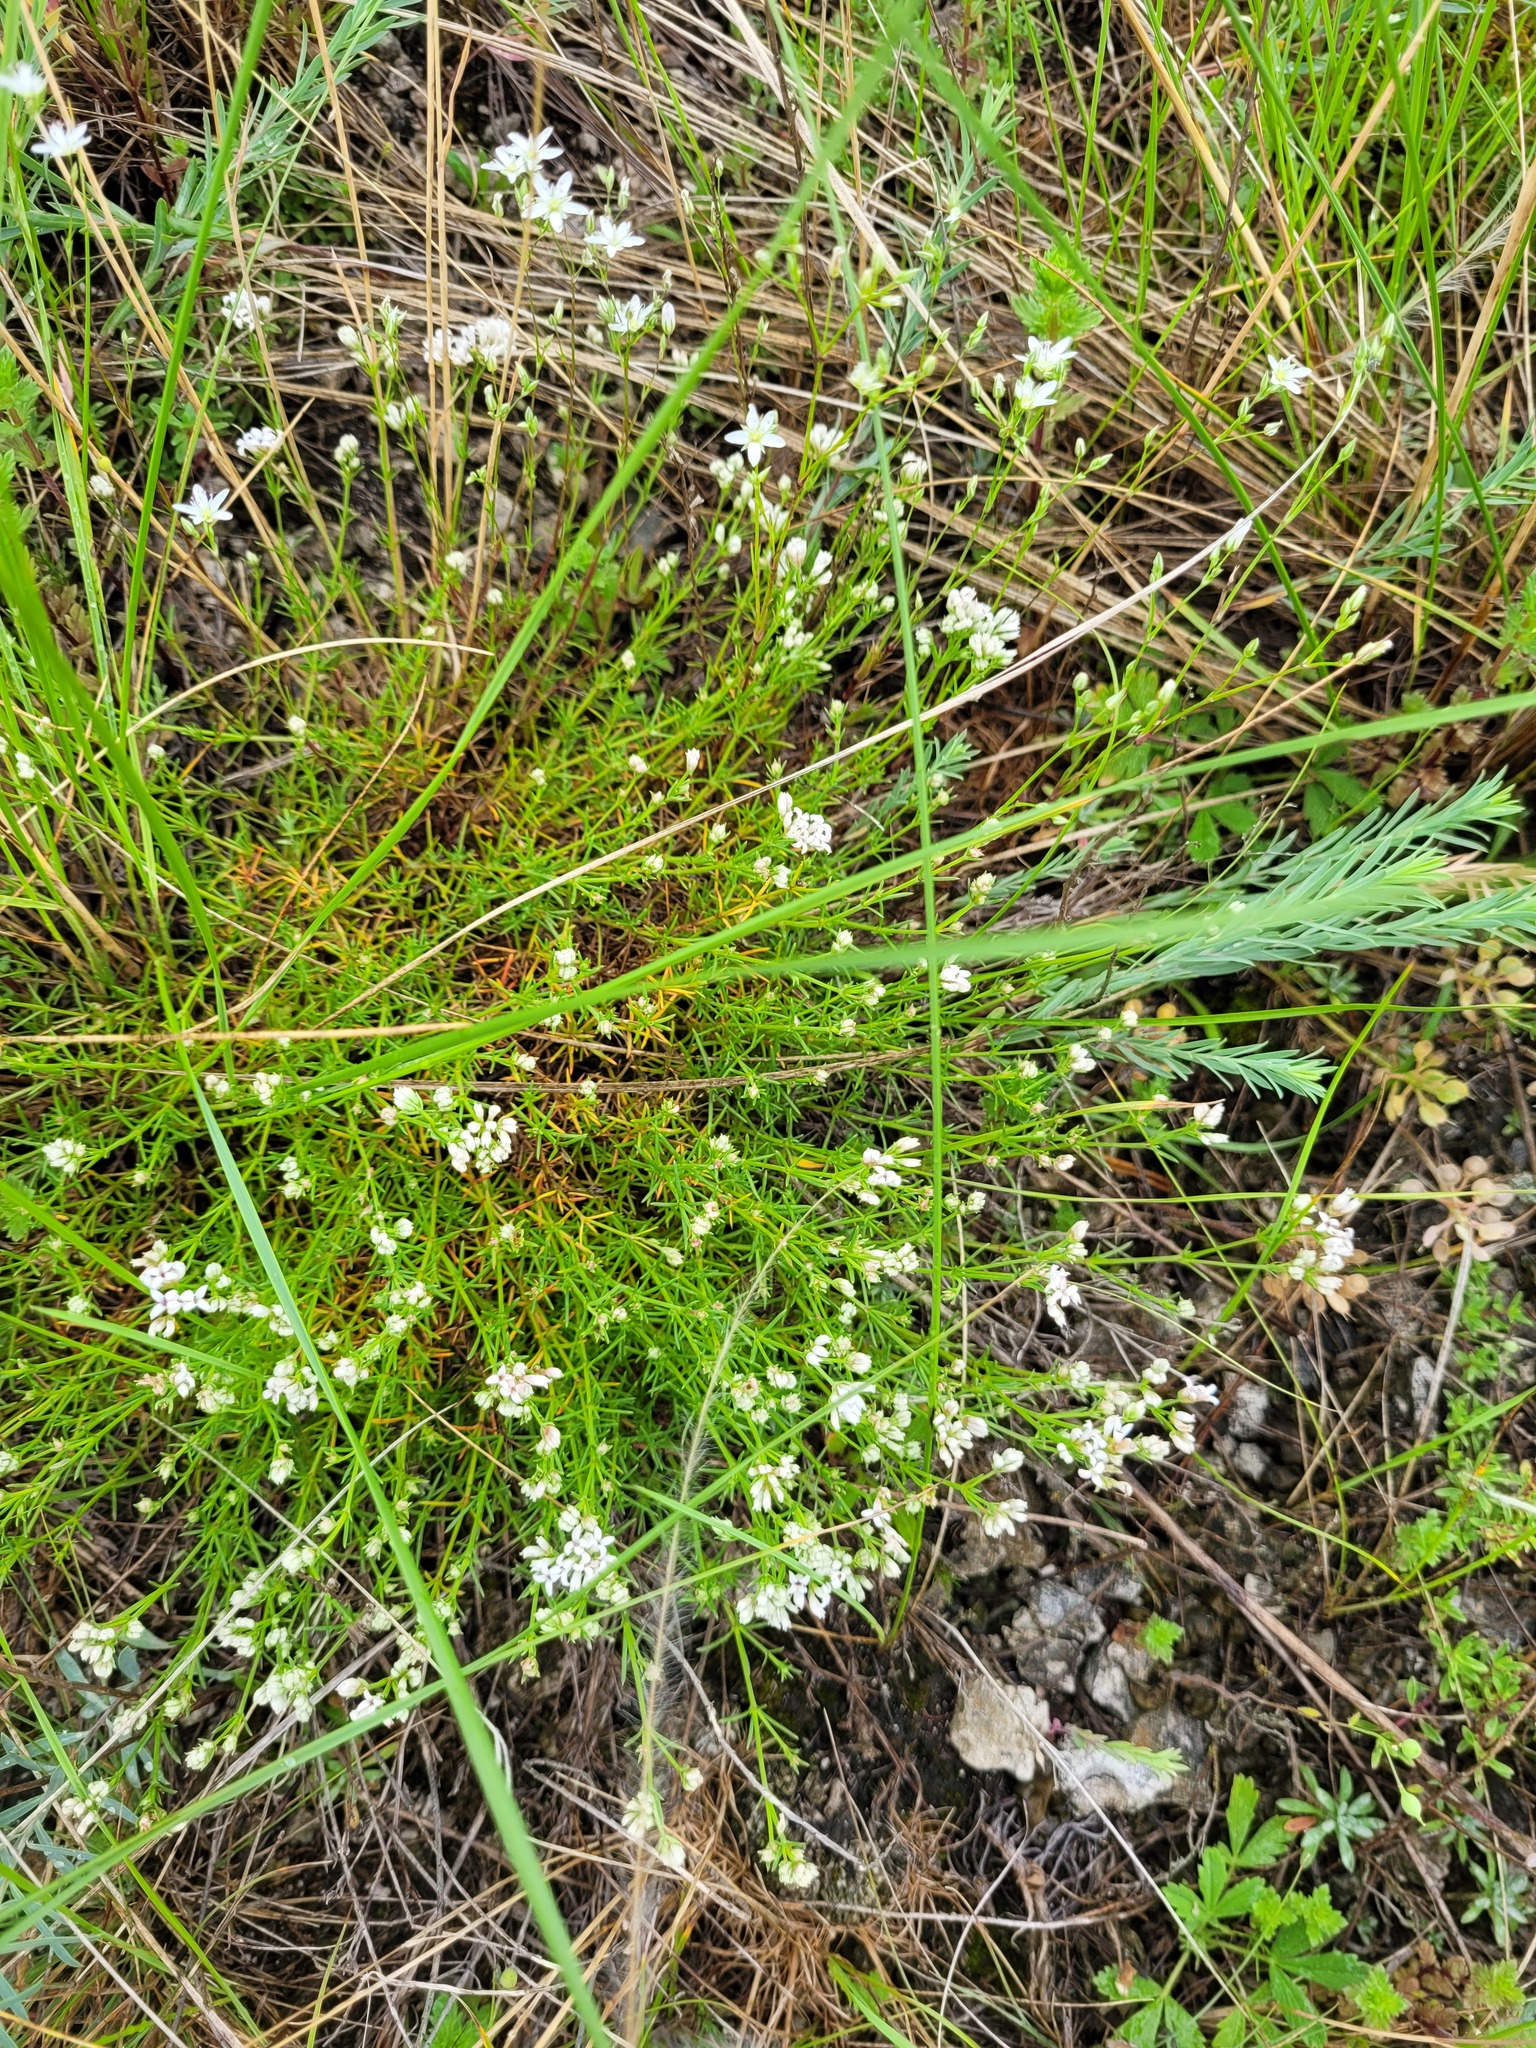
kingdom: Plantae
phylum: Tracheophyta
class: Magnoliopsida
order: Gentianales
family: Rubiaceae
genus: Cynanchica
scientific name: Cynanchica tephrocarpa
